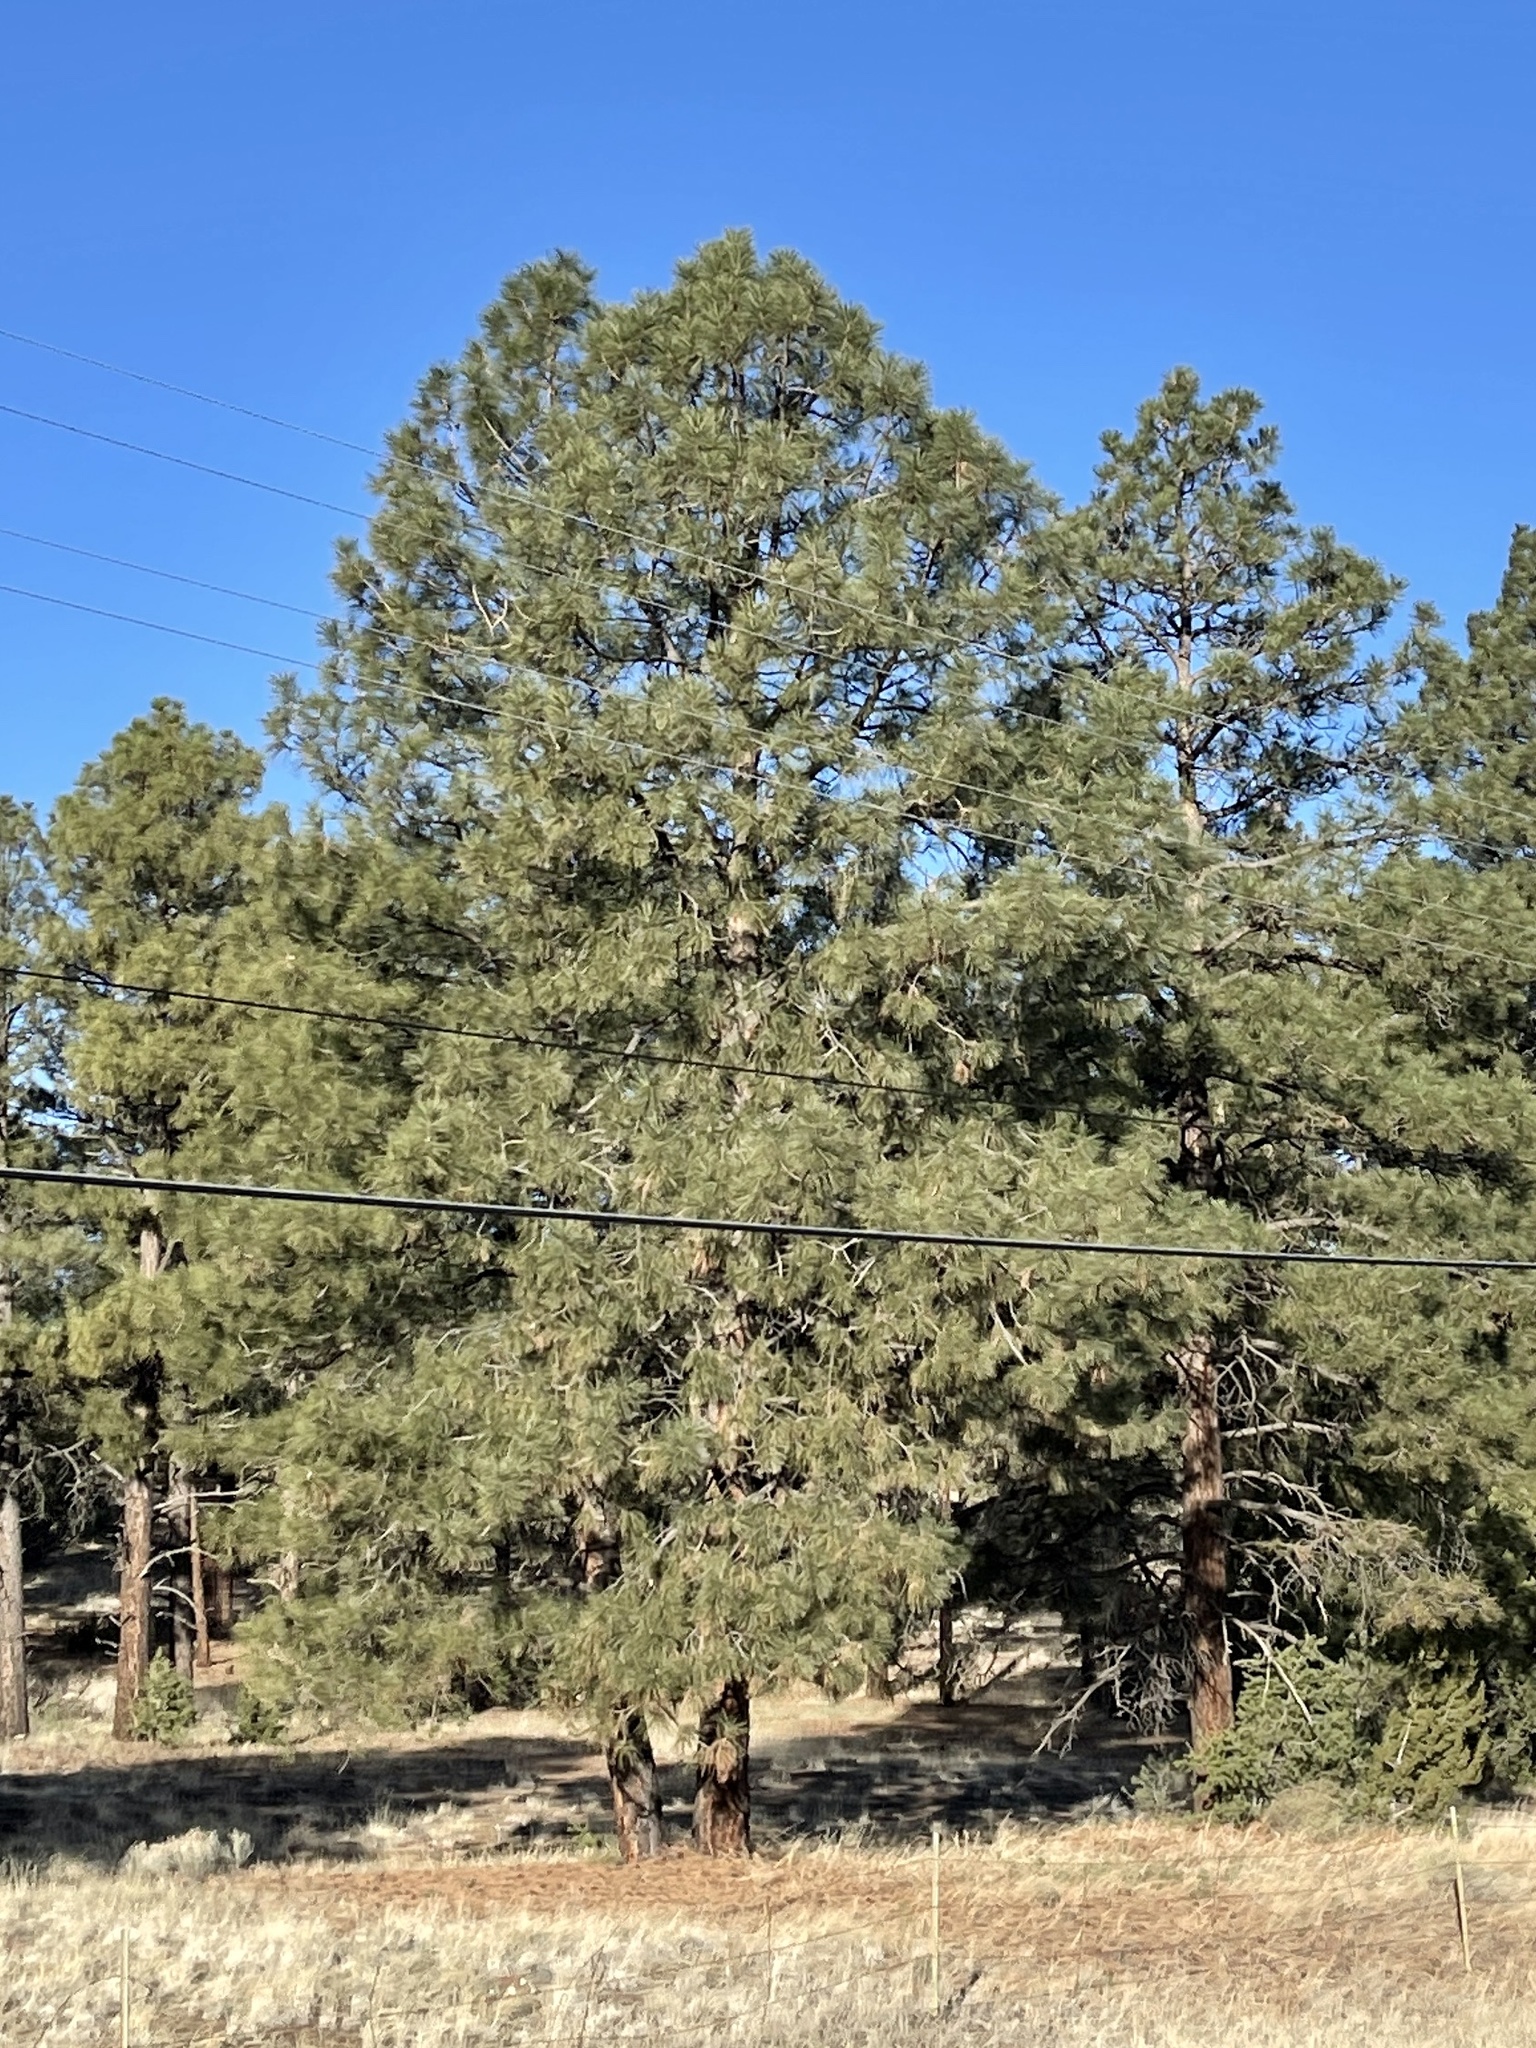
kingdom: Plantae
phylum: Tracheophyta
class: Pinopsida
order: Pinales
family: Pinaceae
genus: Pinus
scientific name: Pinus ponderosa
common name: Western yellow-pine
